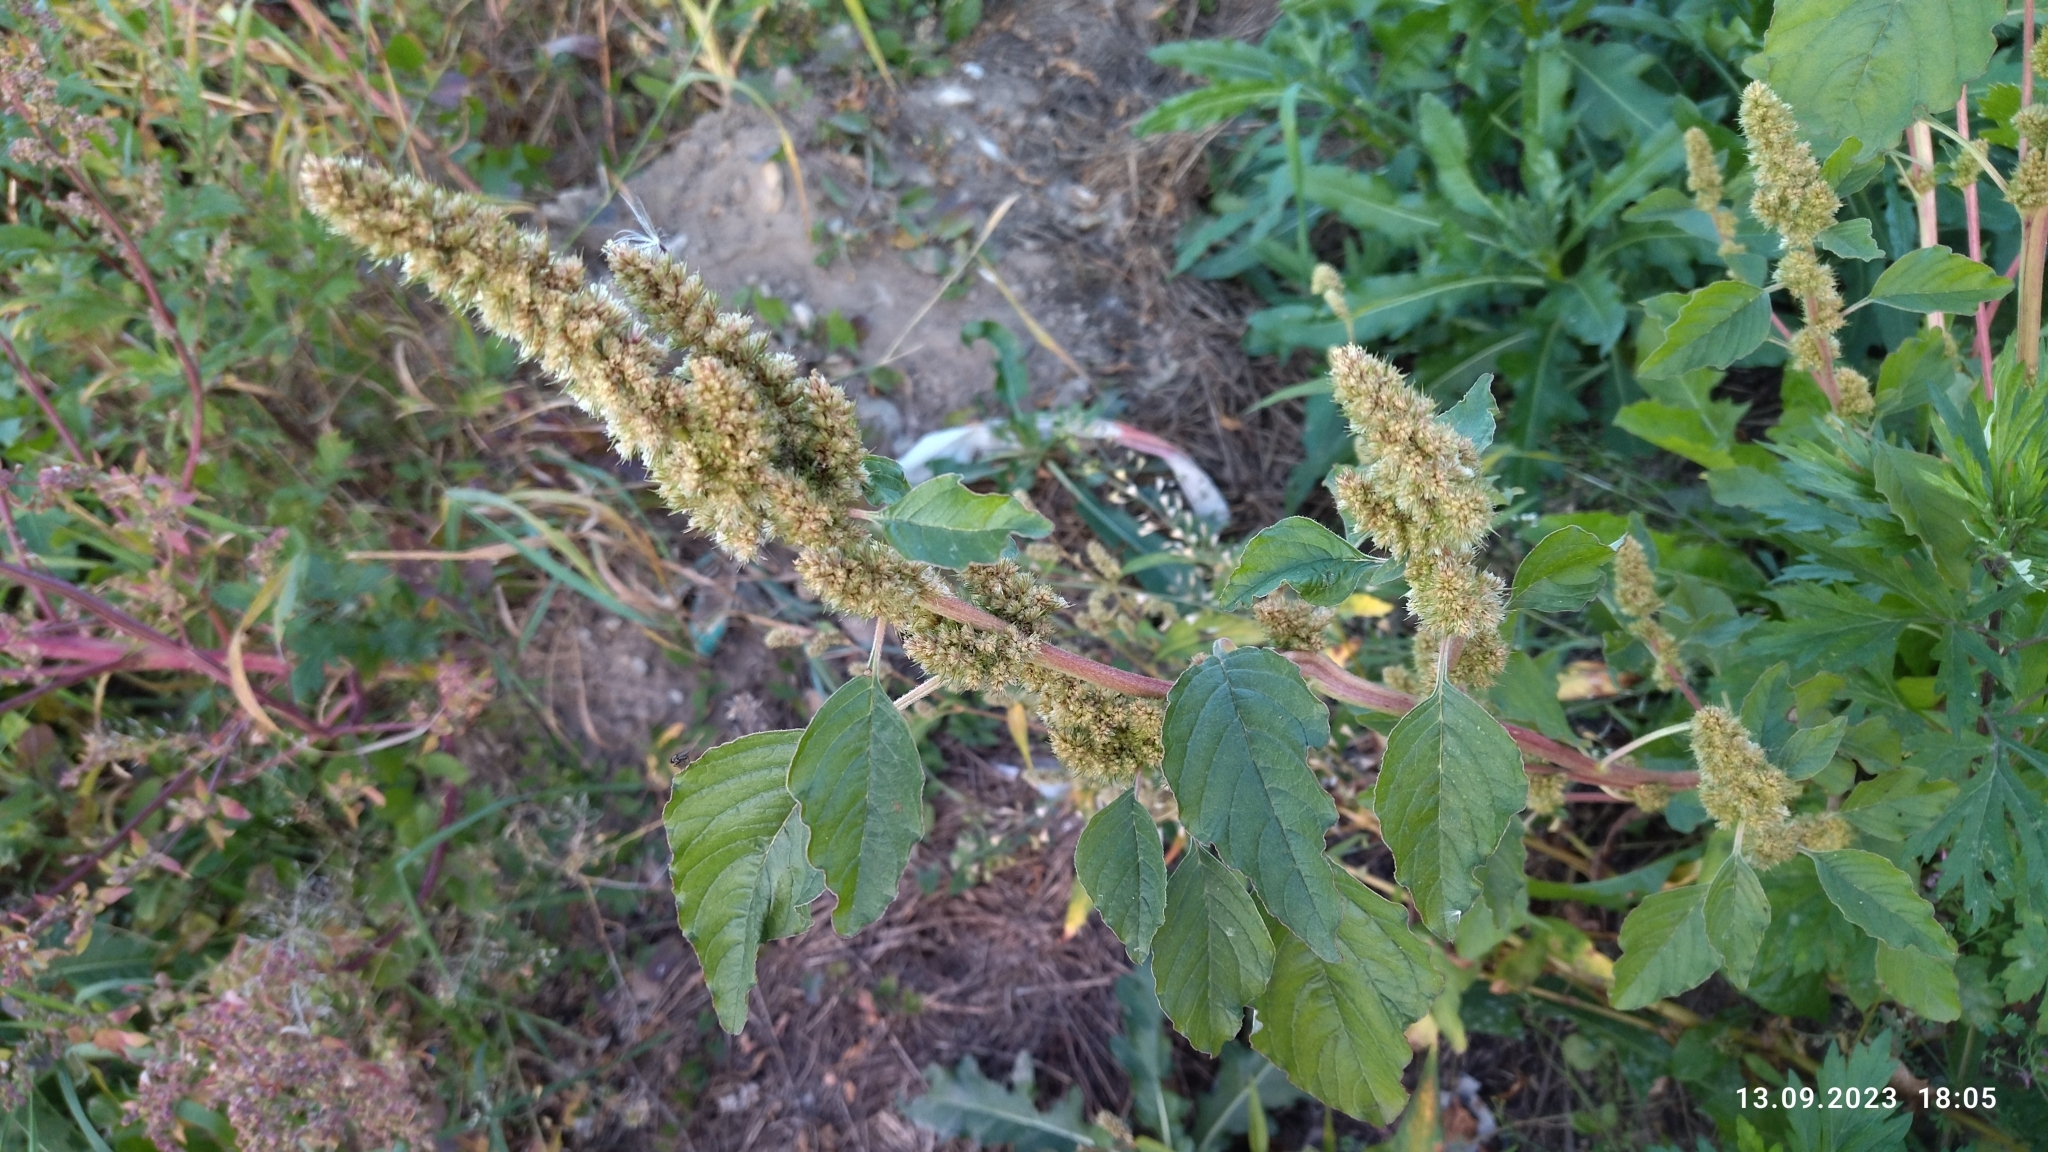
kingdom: Plantae
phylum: Tracheophyta
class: Magnoliopsida
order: Caryophyllales
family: Amaranthaceae
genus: Amaranthus
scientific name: Amaranthus retroflexus
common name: Redroot amaranth
